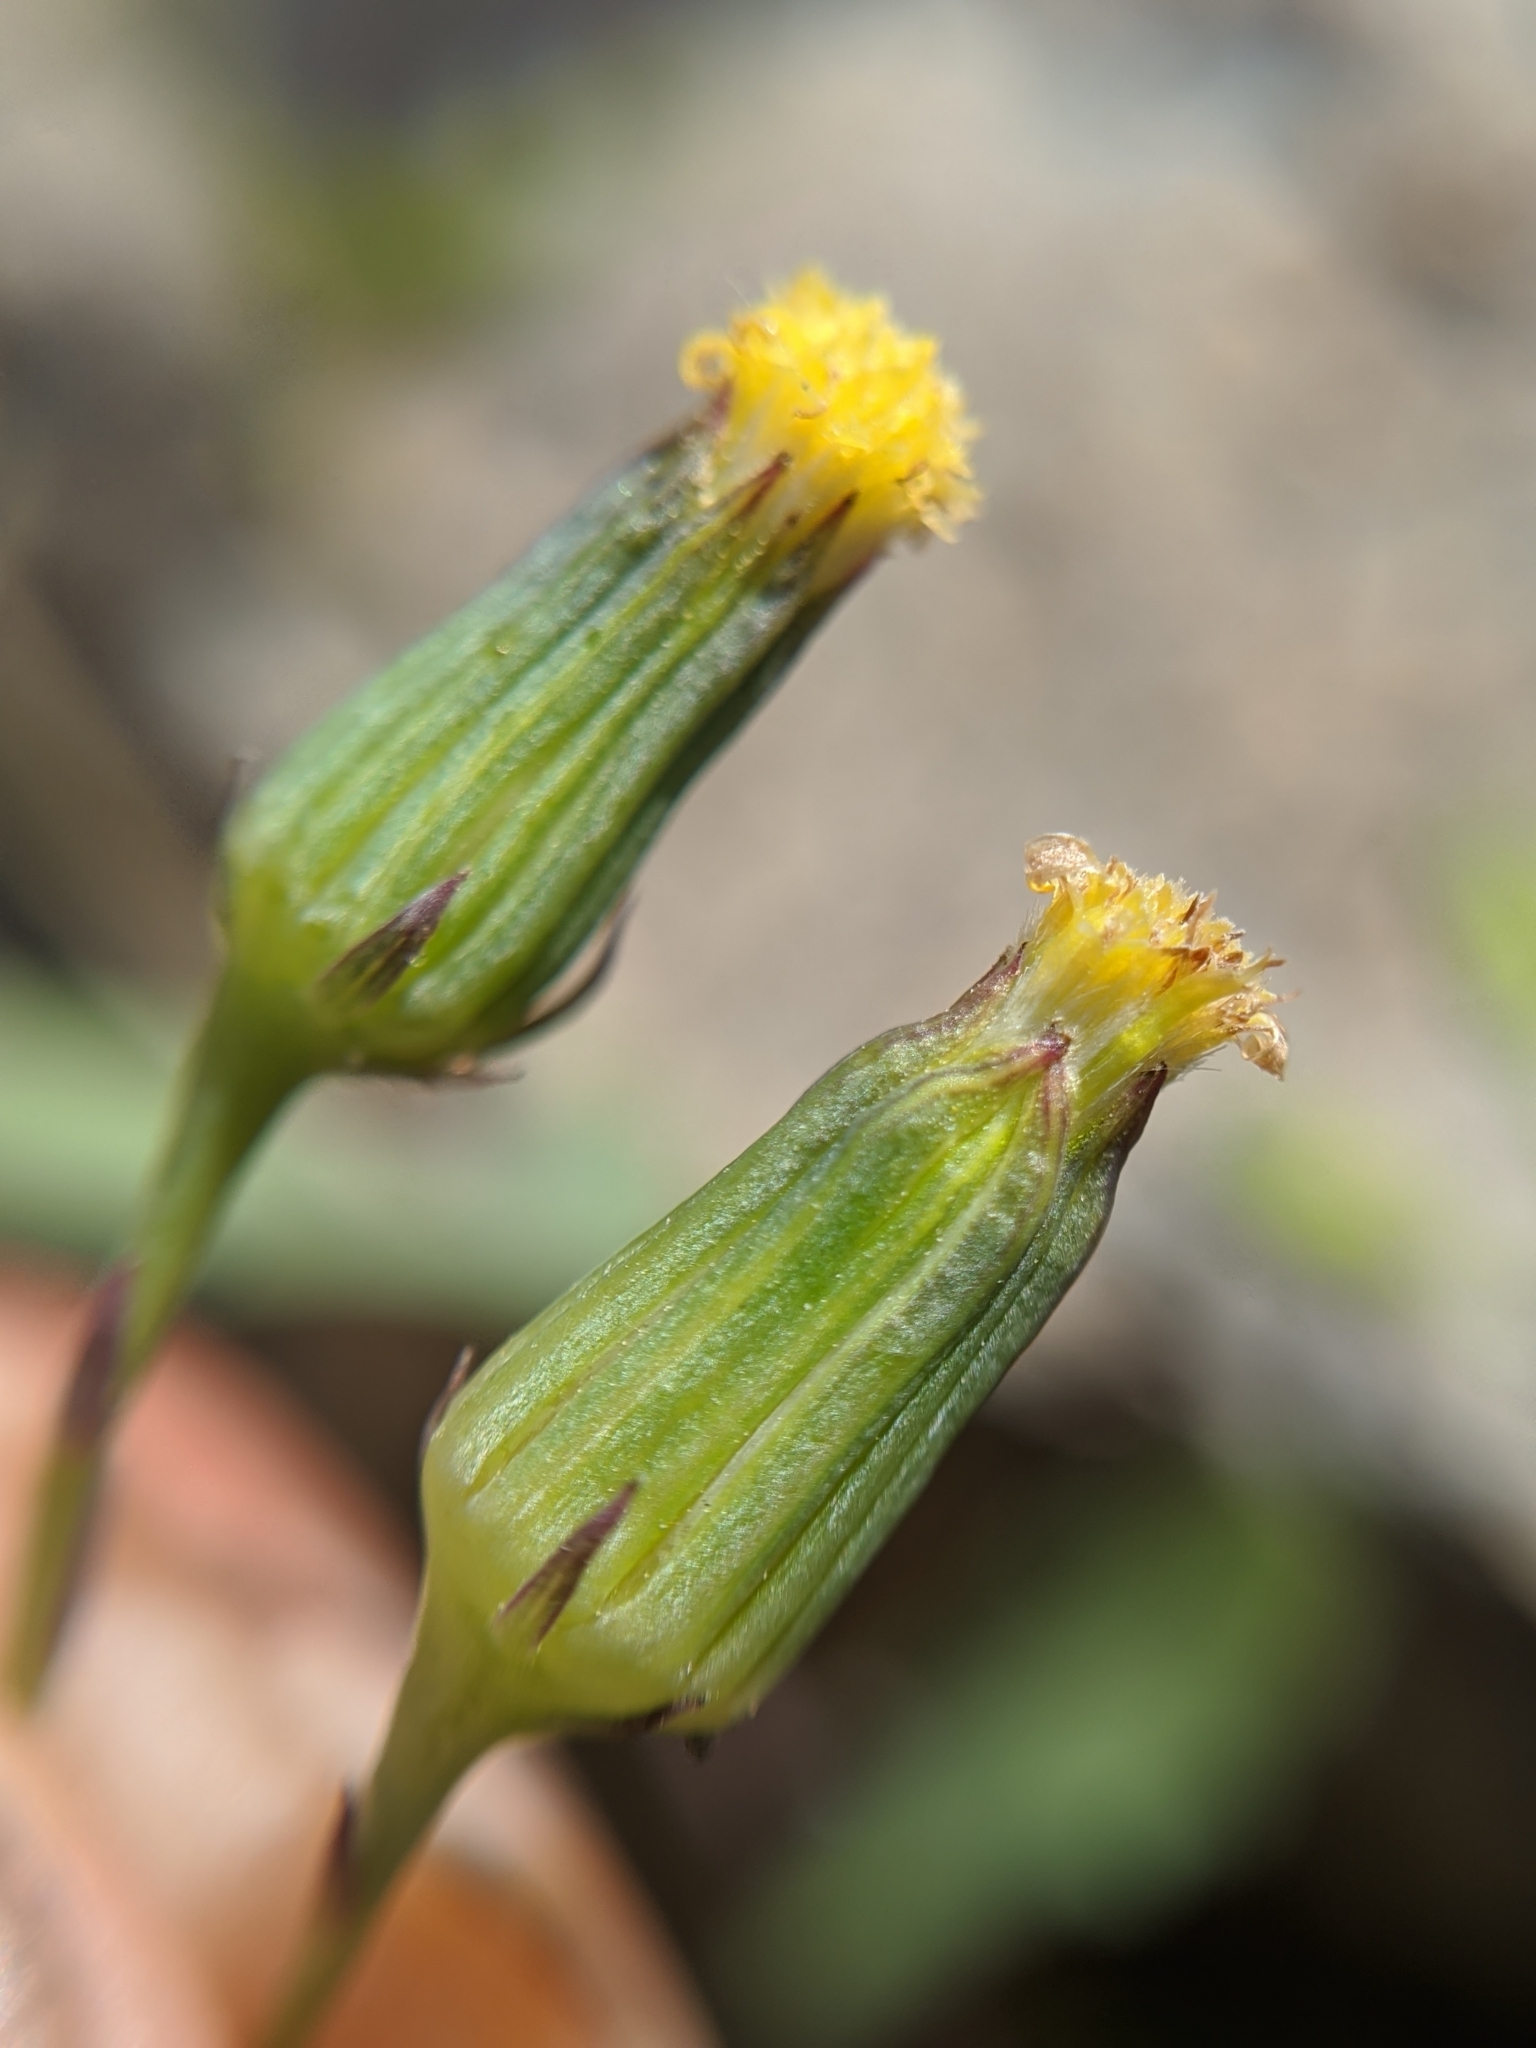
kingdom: Plantae
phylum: Tracheophyta
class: Magnoliopsida
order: Asterales
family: Asteraceae
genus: Senecio
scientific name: Senecio mohavensis
